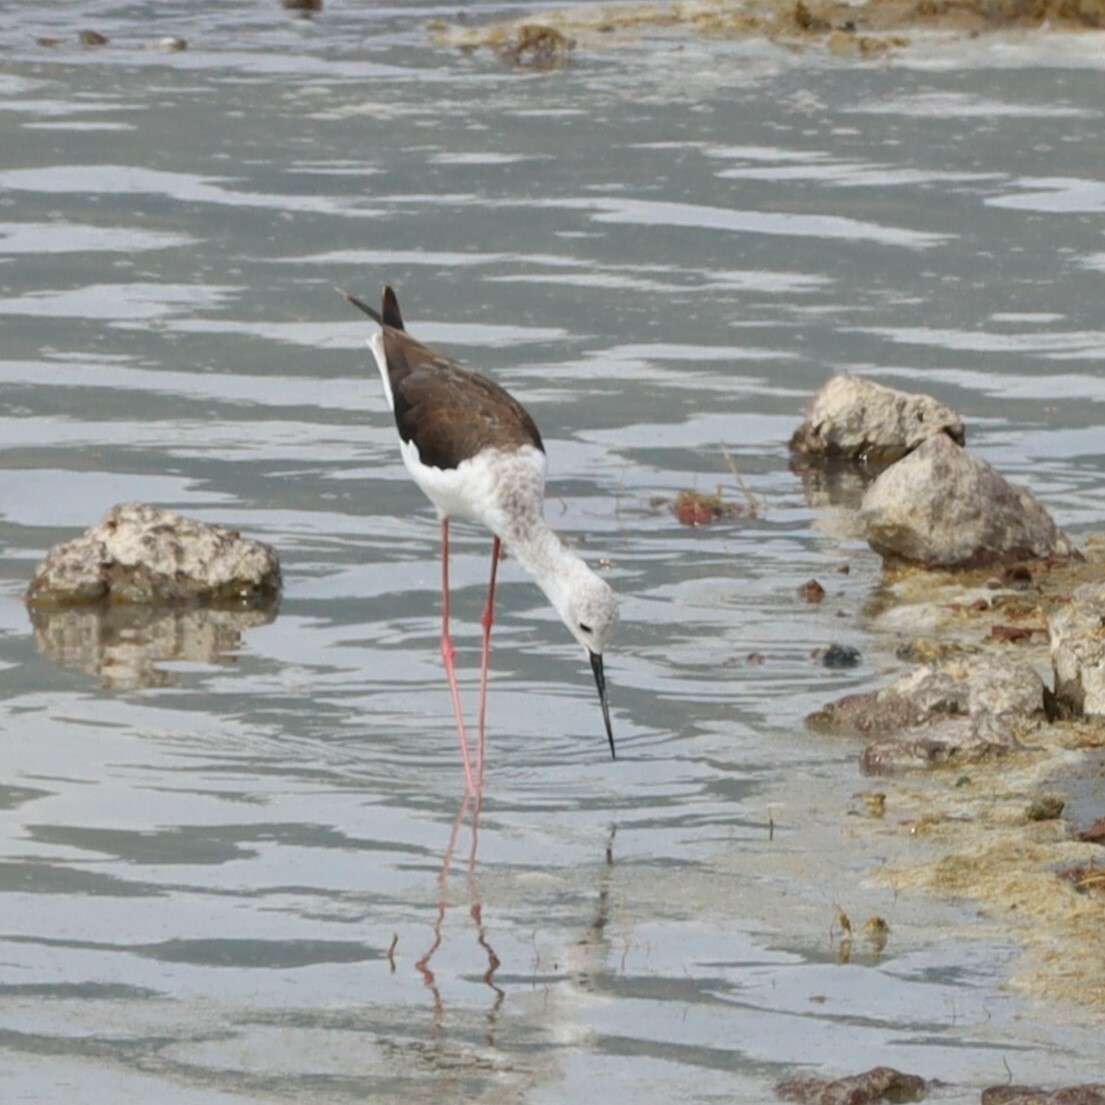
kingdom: Animalia
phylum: Chordata
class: Aves
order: Charadriiformes
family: Recurvirostridae
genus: Himantopus
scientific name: Himantopus himantopus
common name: Black-winged stilt
